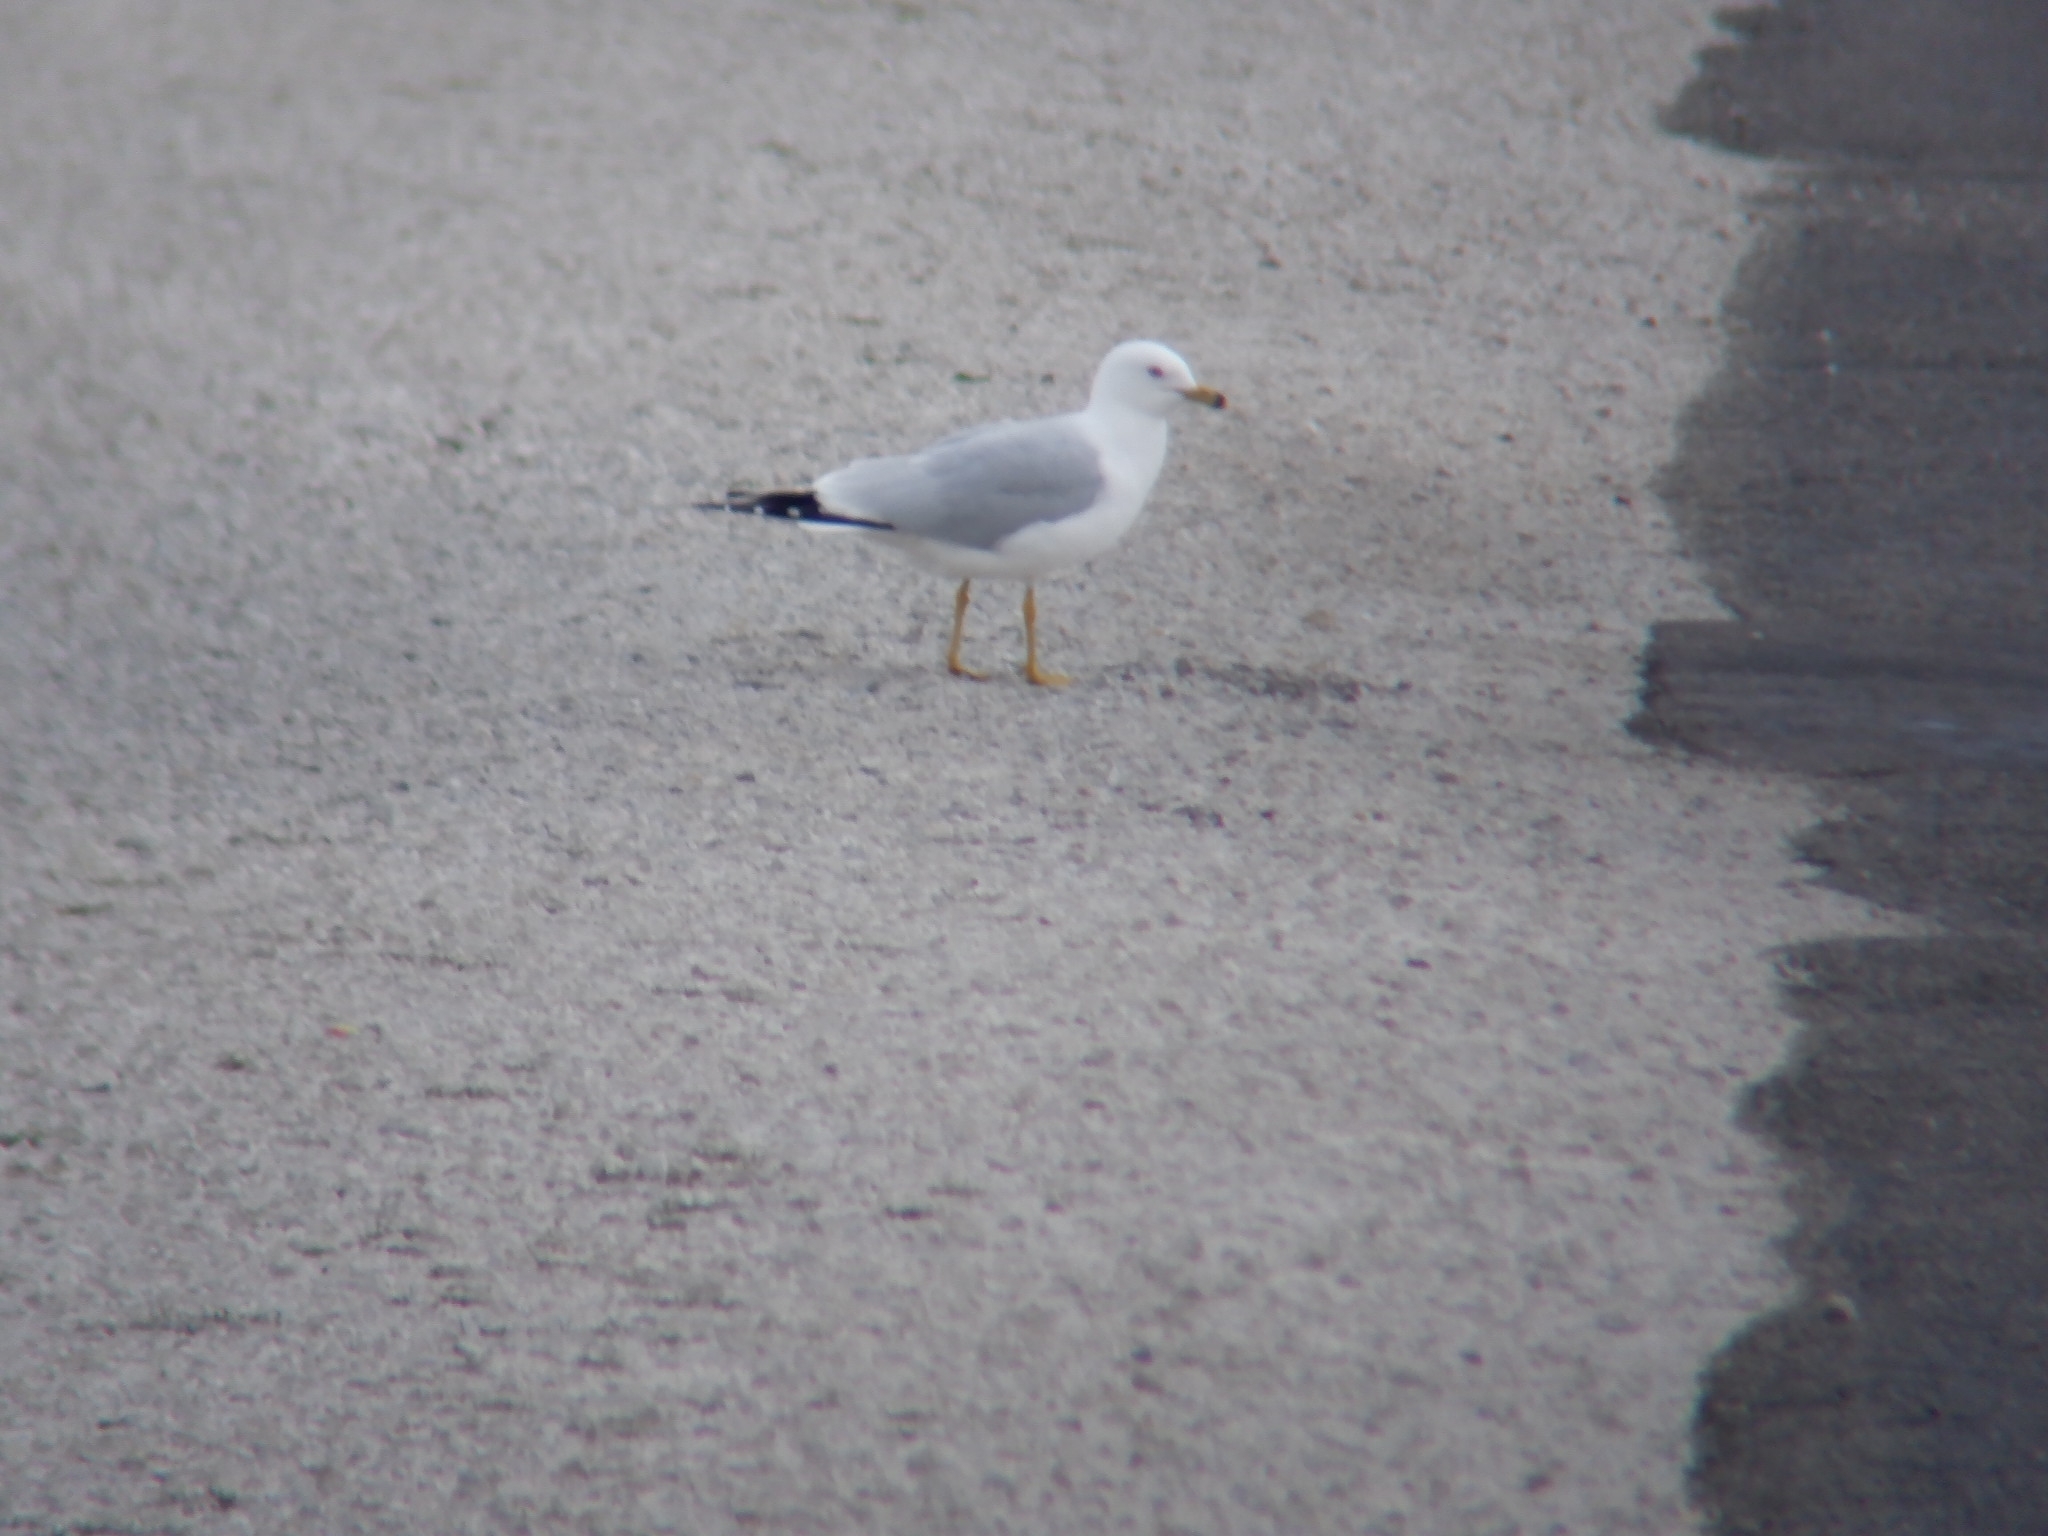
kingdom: Animalia
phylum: Chordata
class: Aves
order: Charadriiformes
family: Laridae
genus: Larus
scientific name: Larus delawarensis
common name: Ring-billed gull
